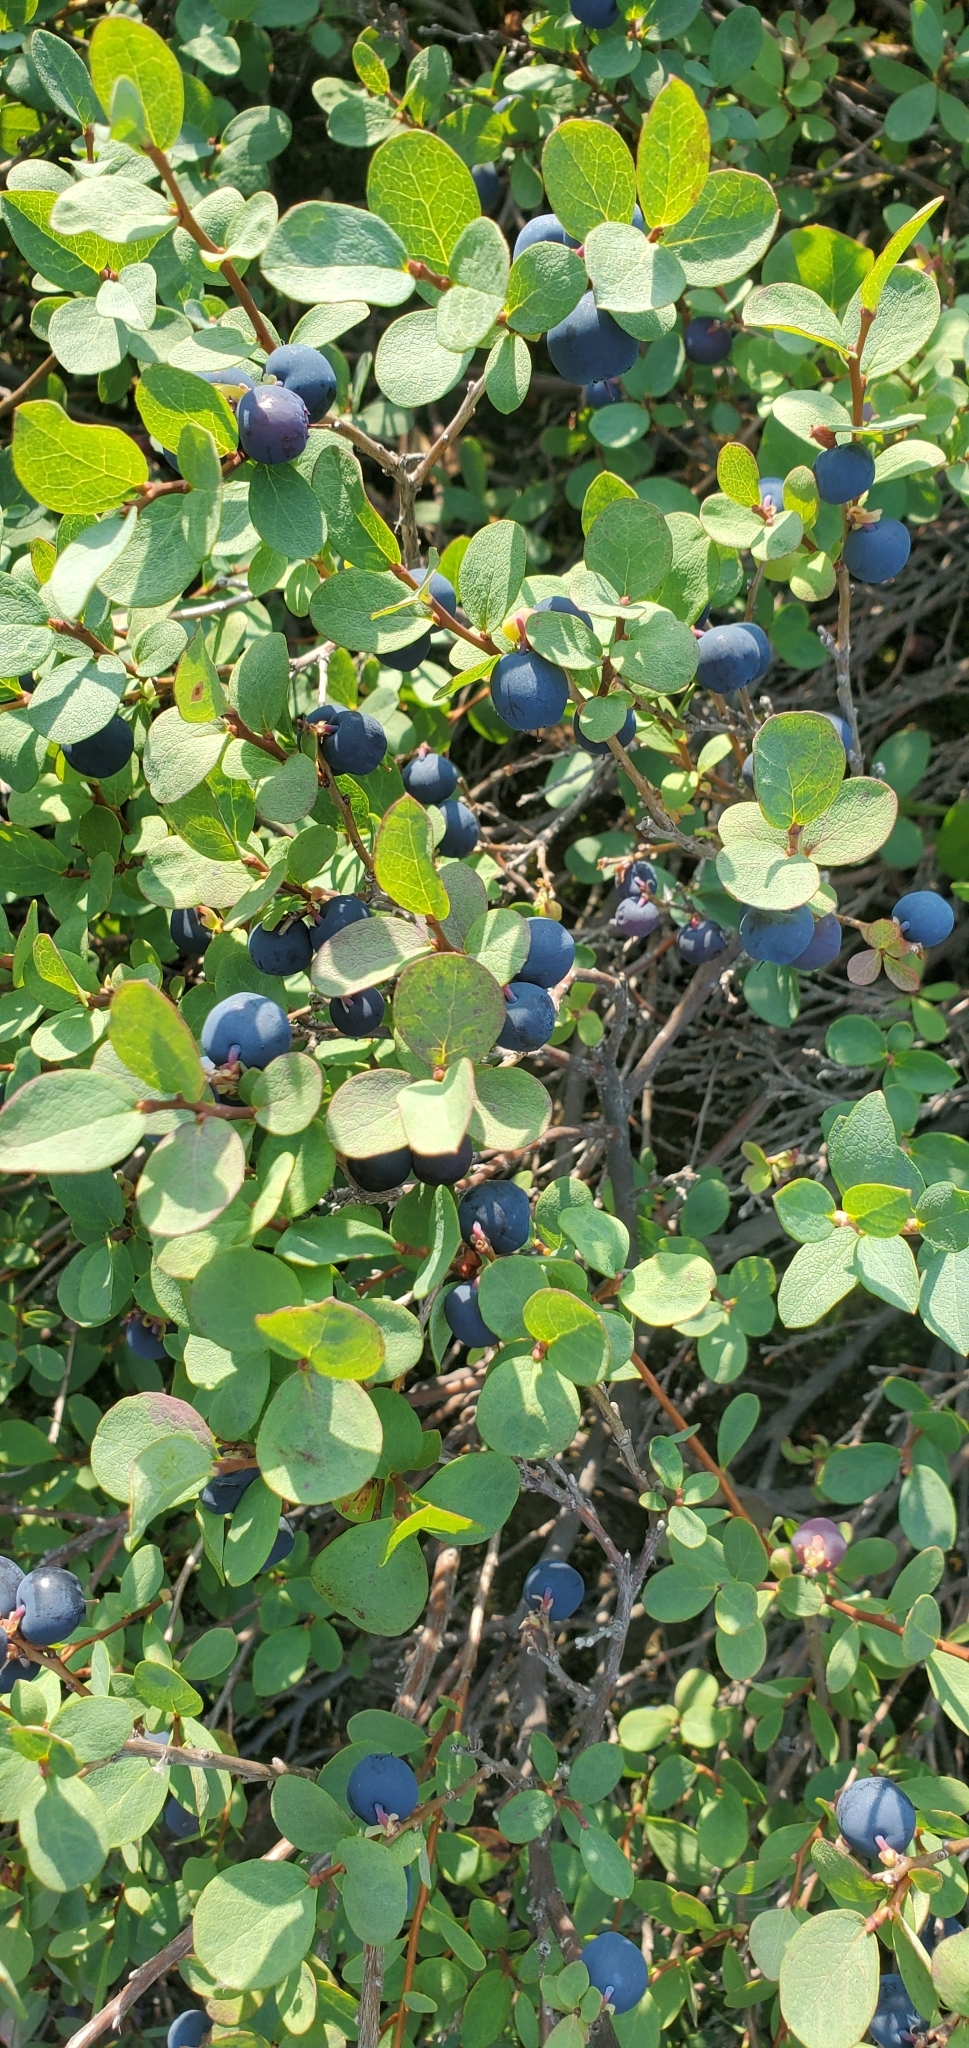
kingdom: Plantae
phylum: Tracheophyta
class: Magnoliopsida
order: Ericales
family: Ericaceae
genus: Vaccinium
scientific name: Vaccinium uliginosum
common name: Bog bilberry
